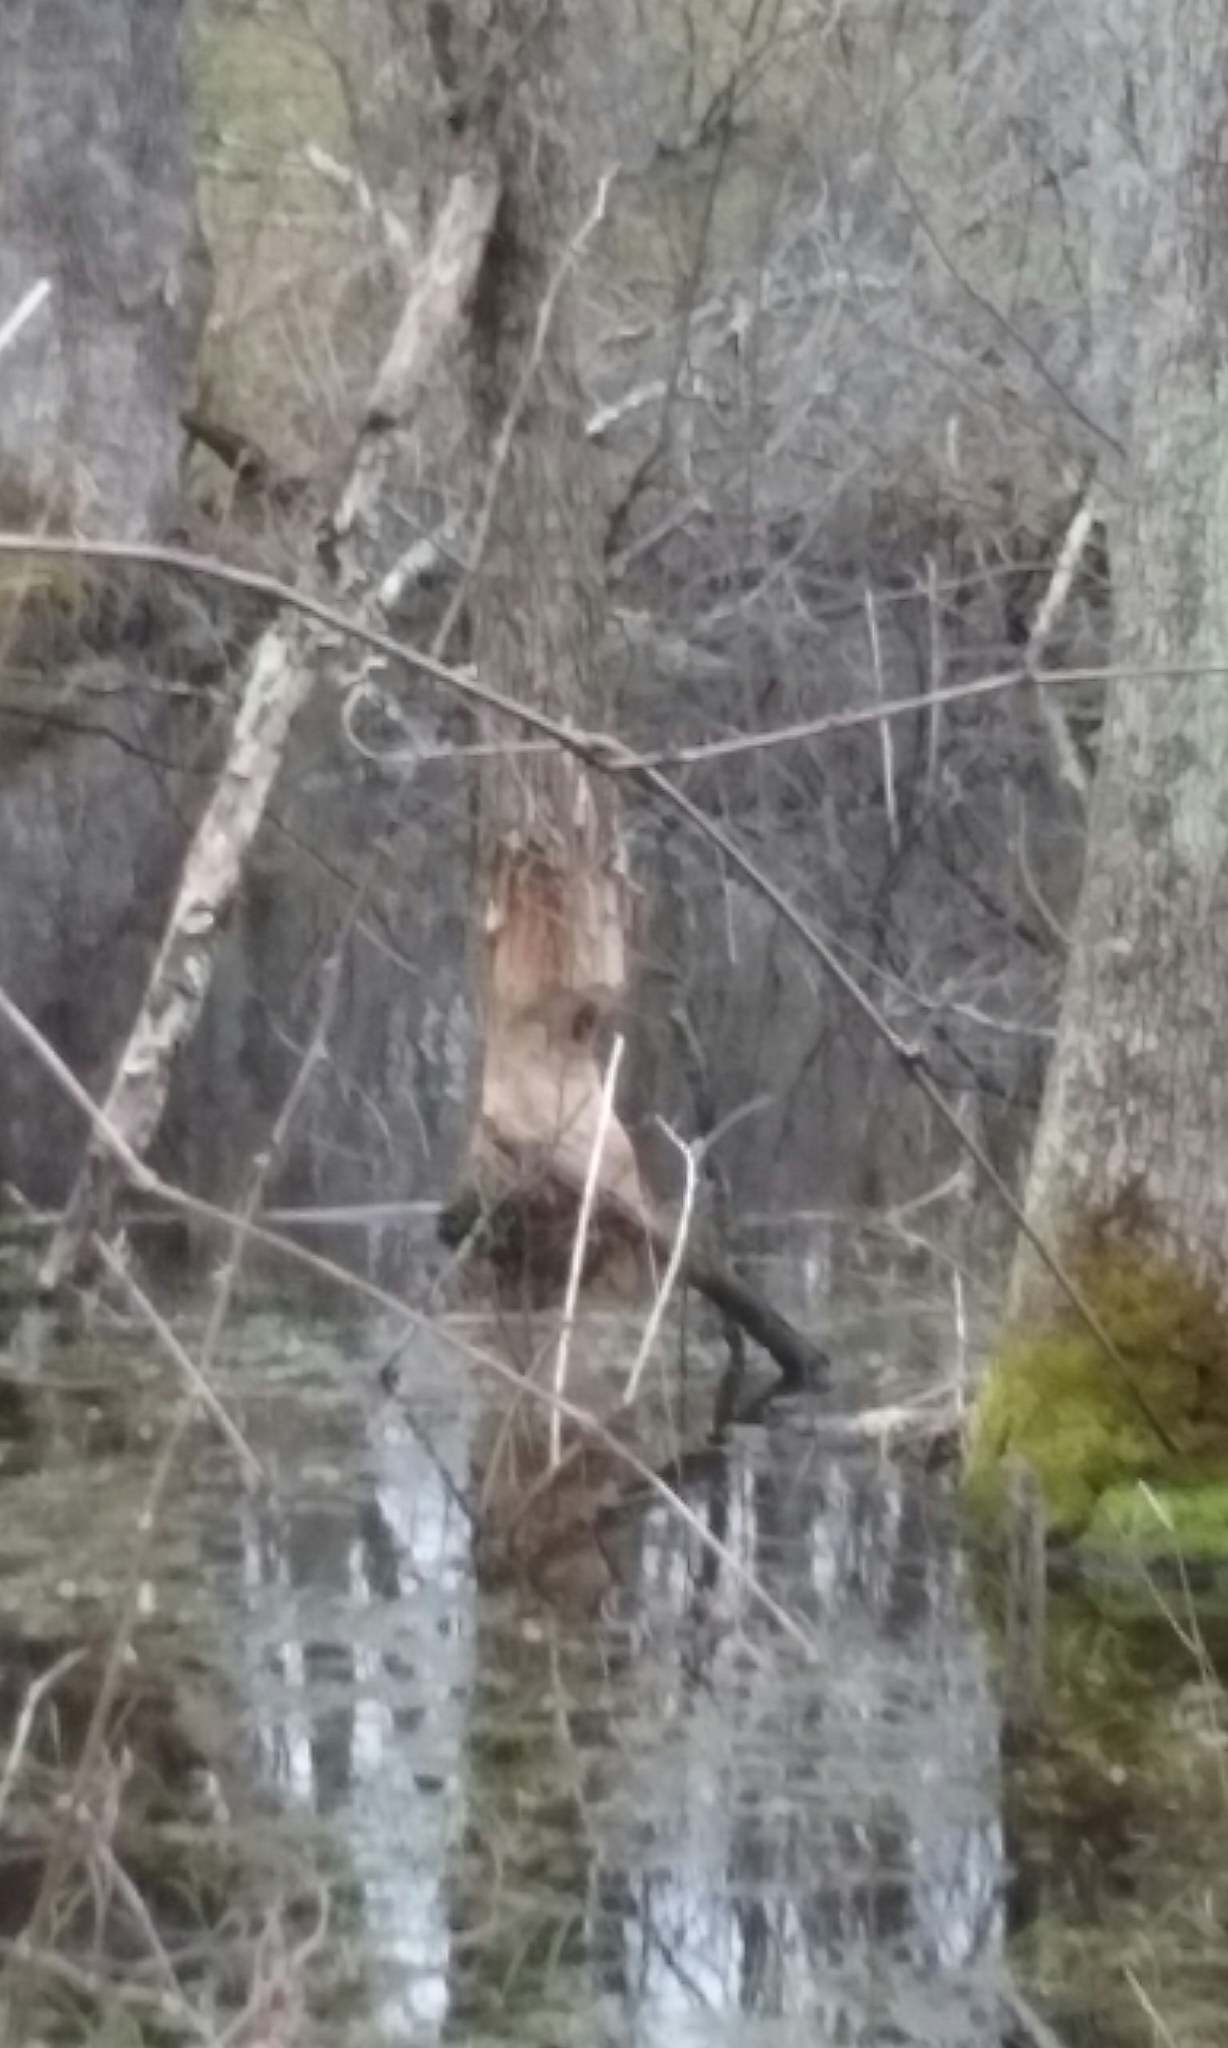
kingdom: Animalia
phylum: Chordata
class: Mammalia
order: Rodentia
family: Castoridae
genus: Castor
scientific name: Castor canadensis
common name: American beaver
